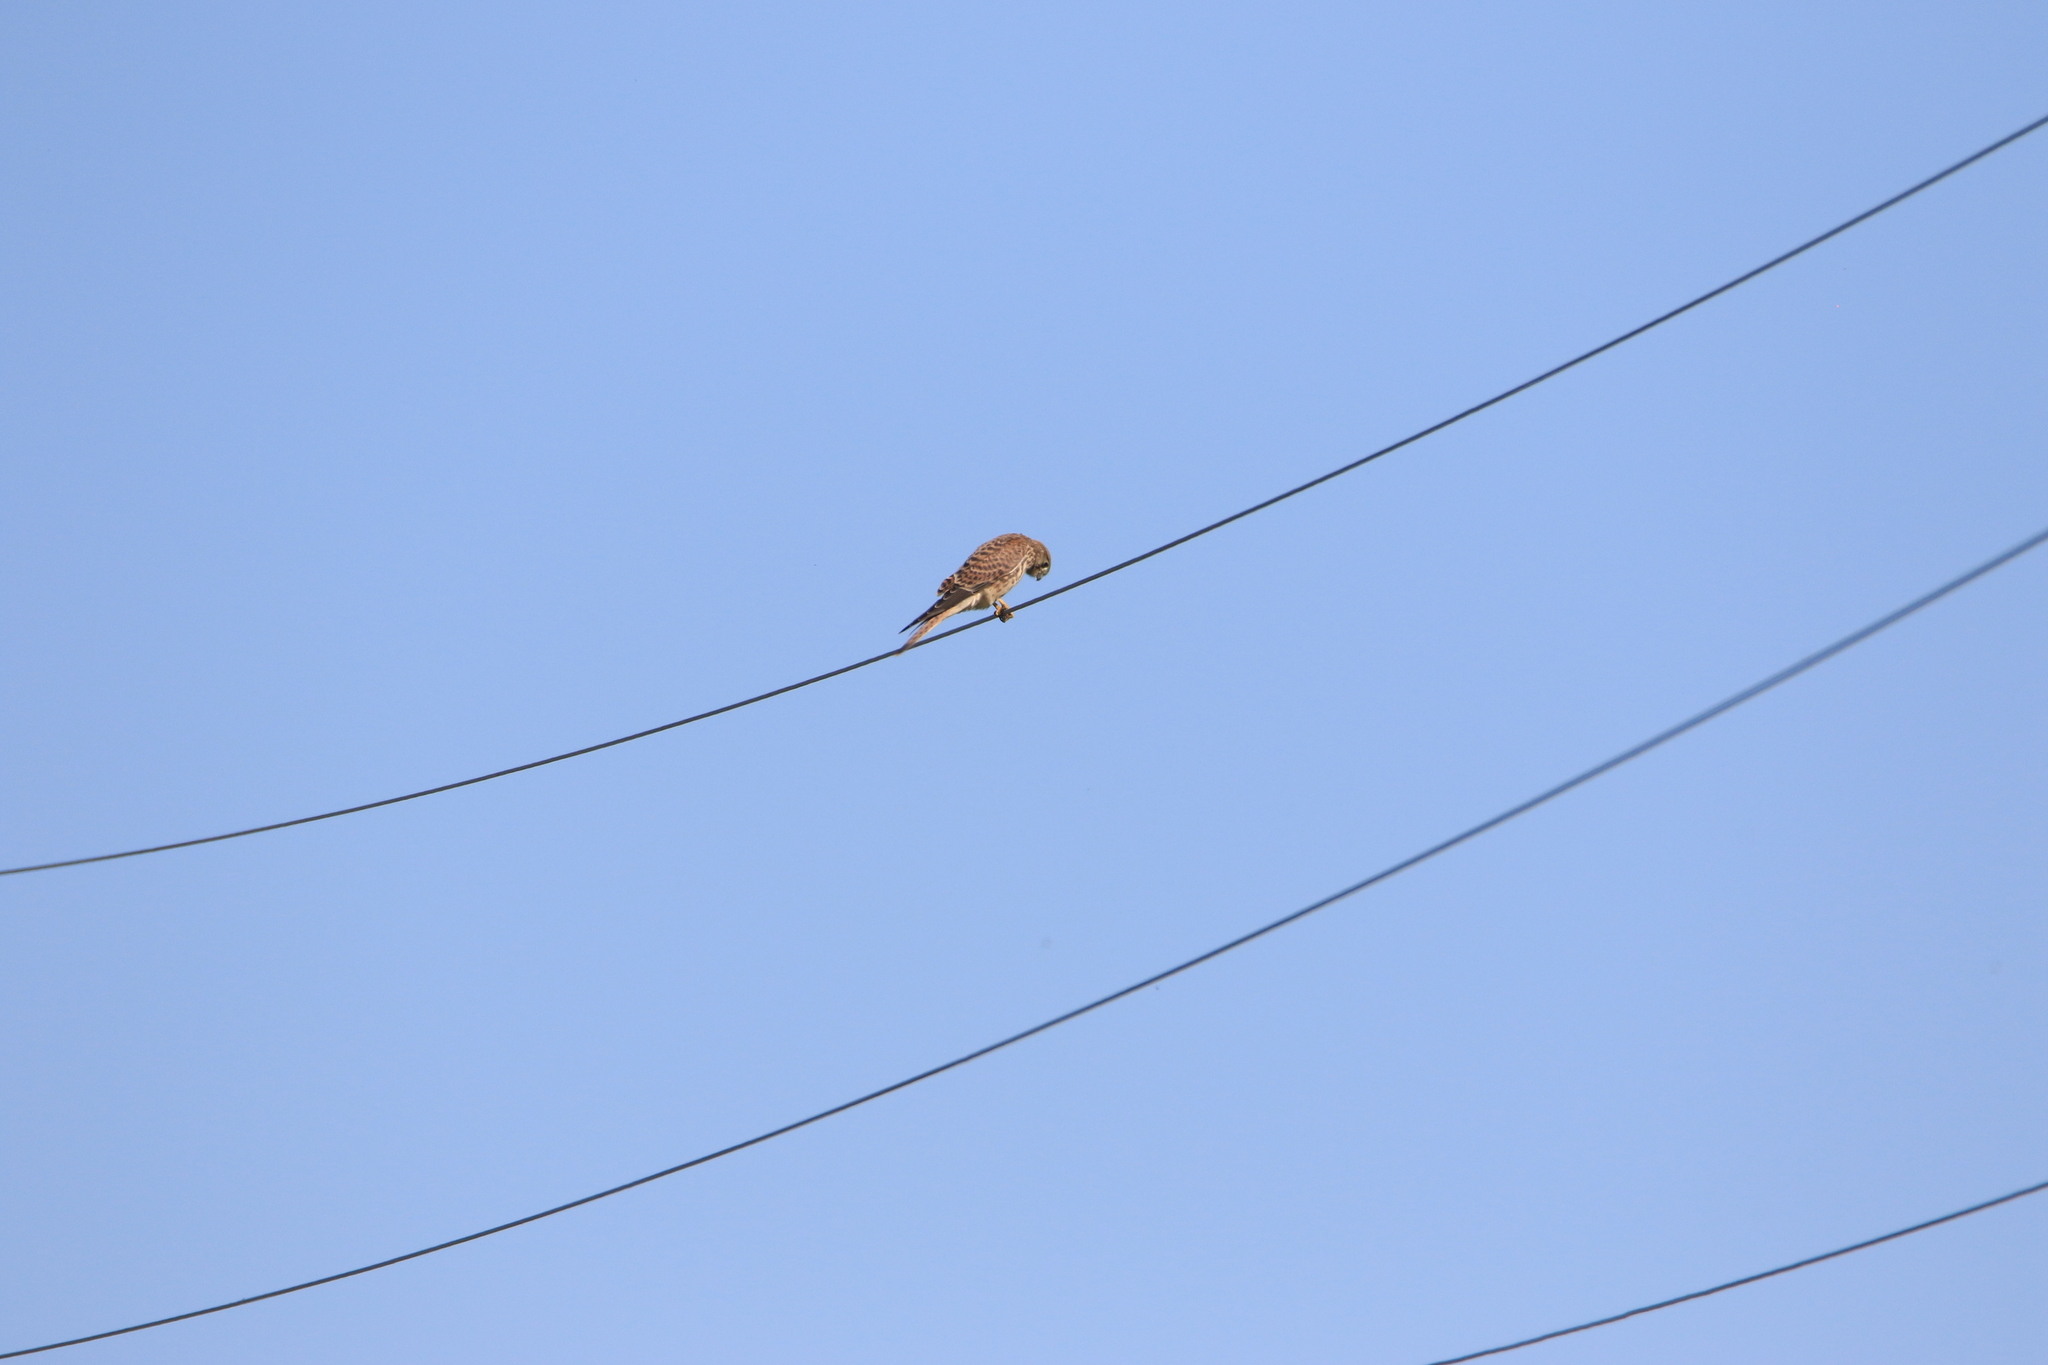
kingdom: Animalia
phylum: Chordata
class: Aves
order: Falconiformes
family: Falconidae
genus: Falco
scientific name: Falco tinnunculus
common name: Common kestrel
